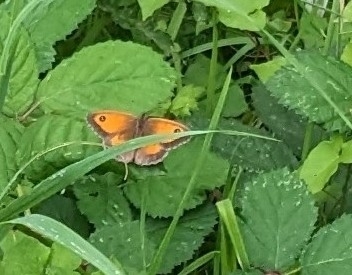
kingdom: Animalia
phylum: Arthropoda
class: Insecta
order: Lepidoptera
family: Nymphalidae
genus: Pyronia
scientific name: Pyronia tithonus
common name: Gatekeeper
